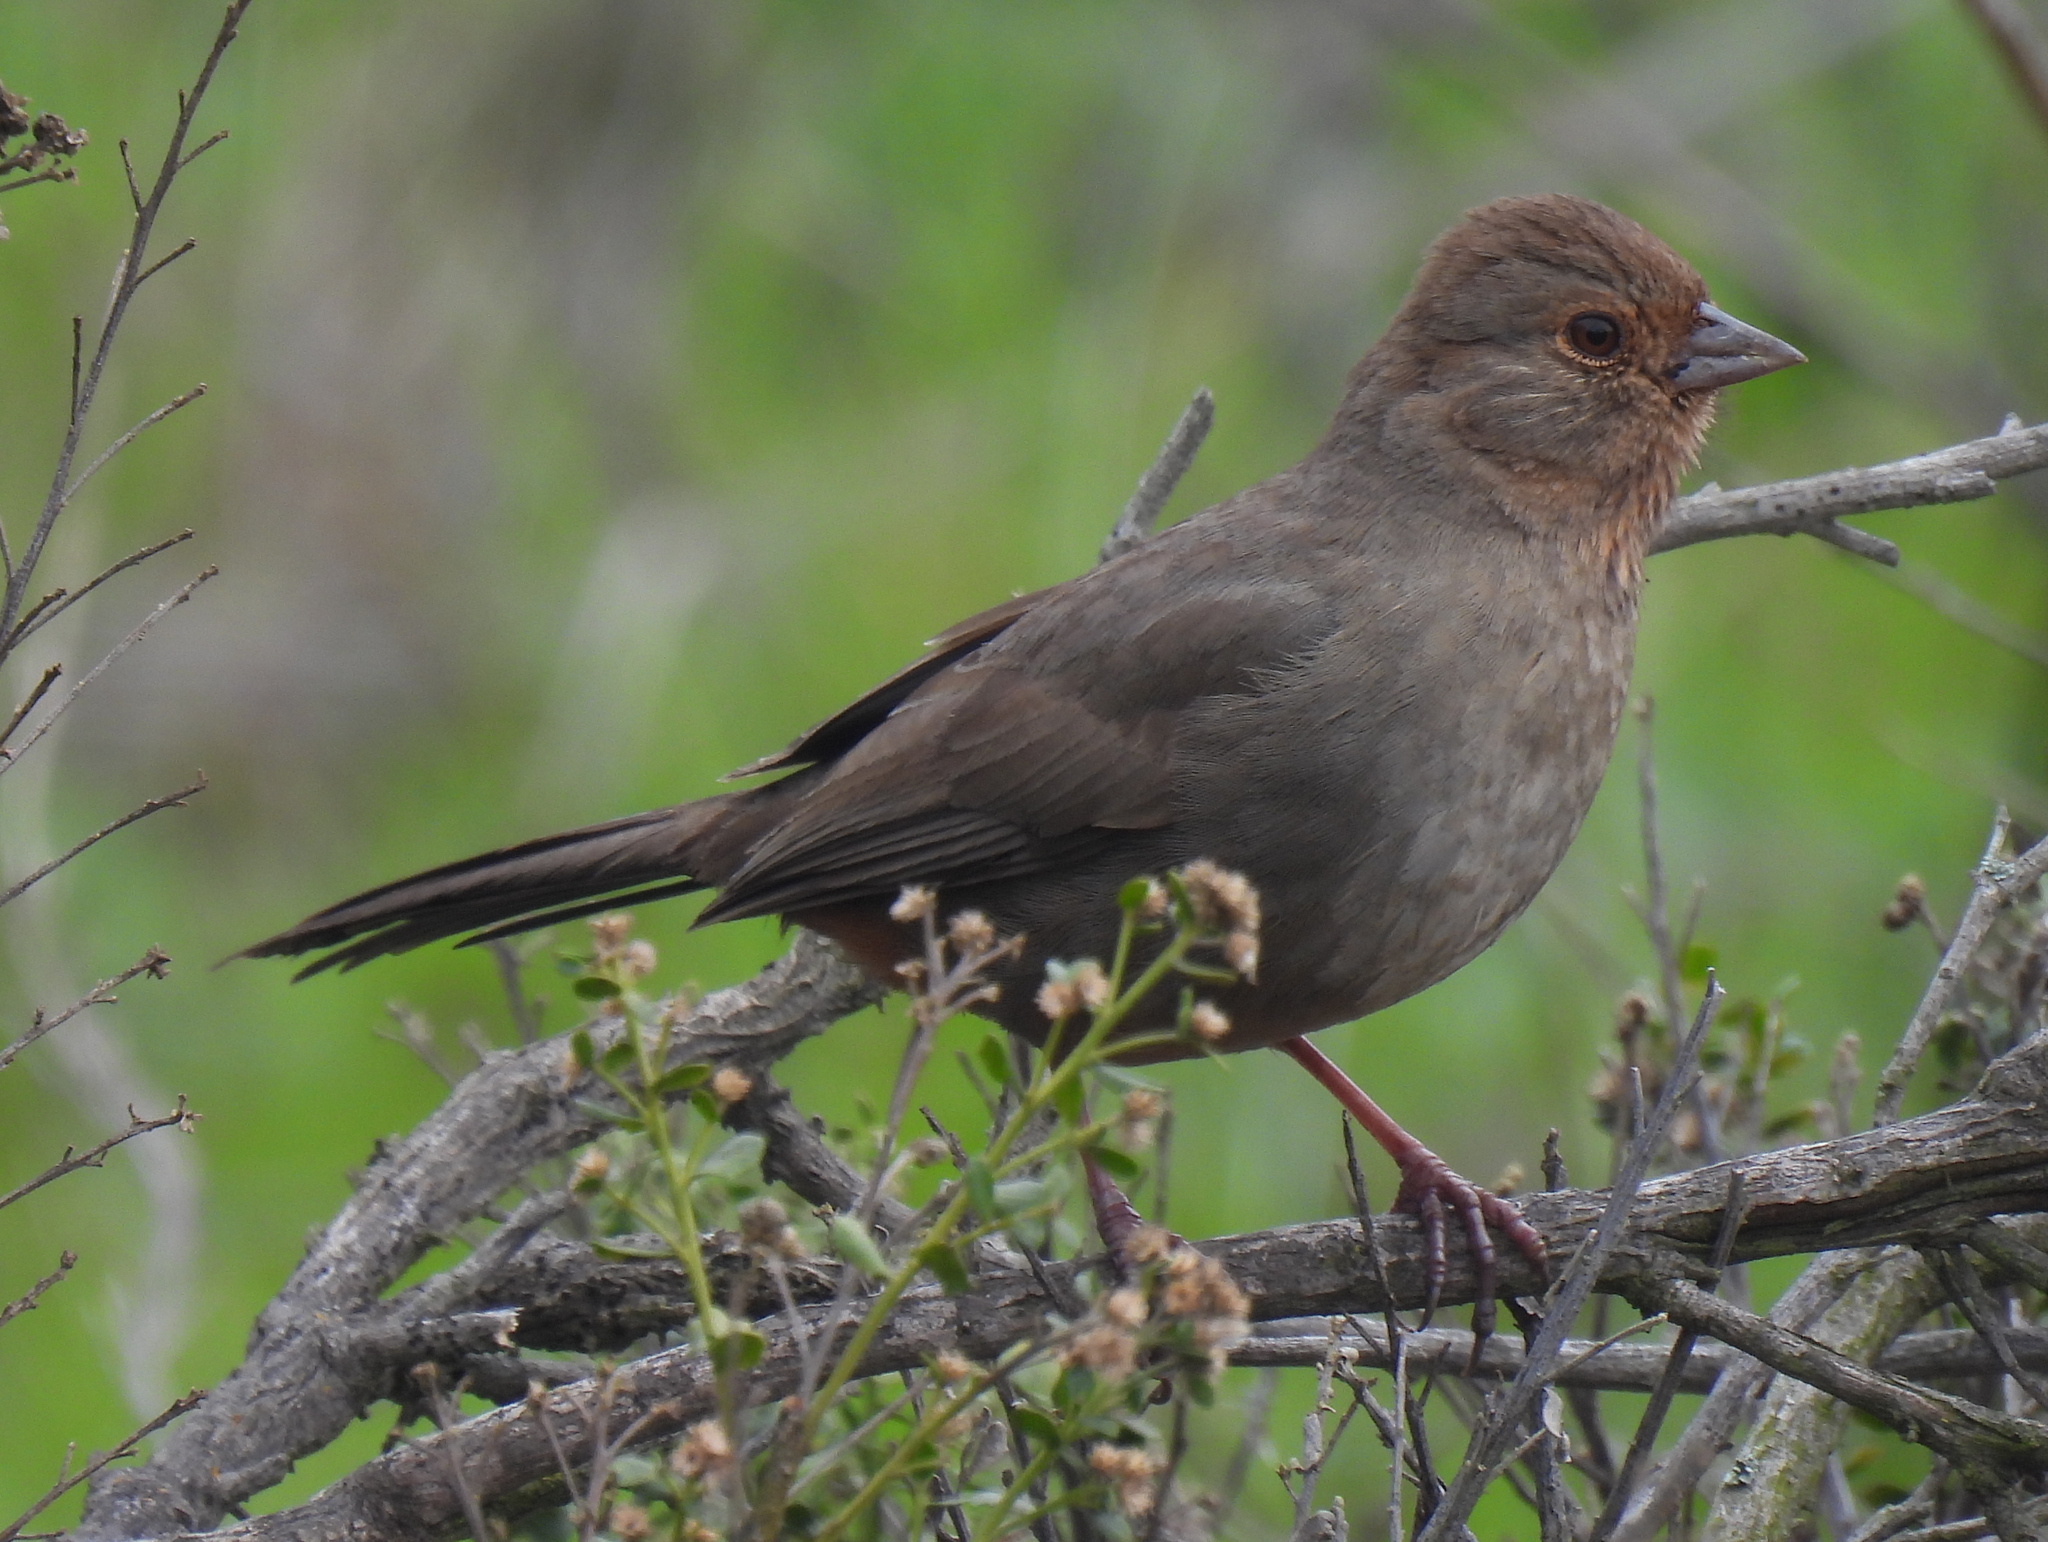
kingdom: Animalia
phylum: Chordata
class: Aves
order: Passeriformes
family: Passerellidae
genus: Melozone
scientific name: Melozone crissalis
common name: California towhee
